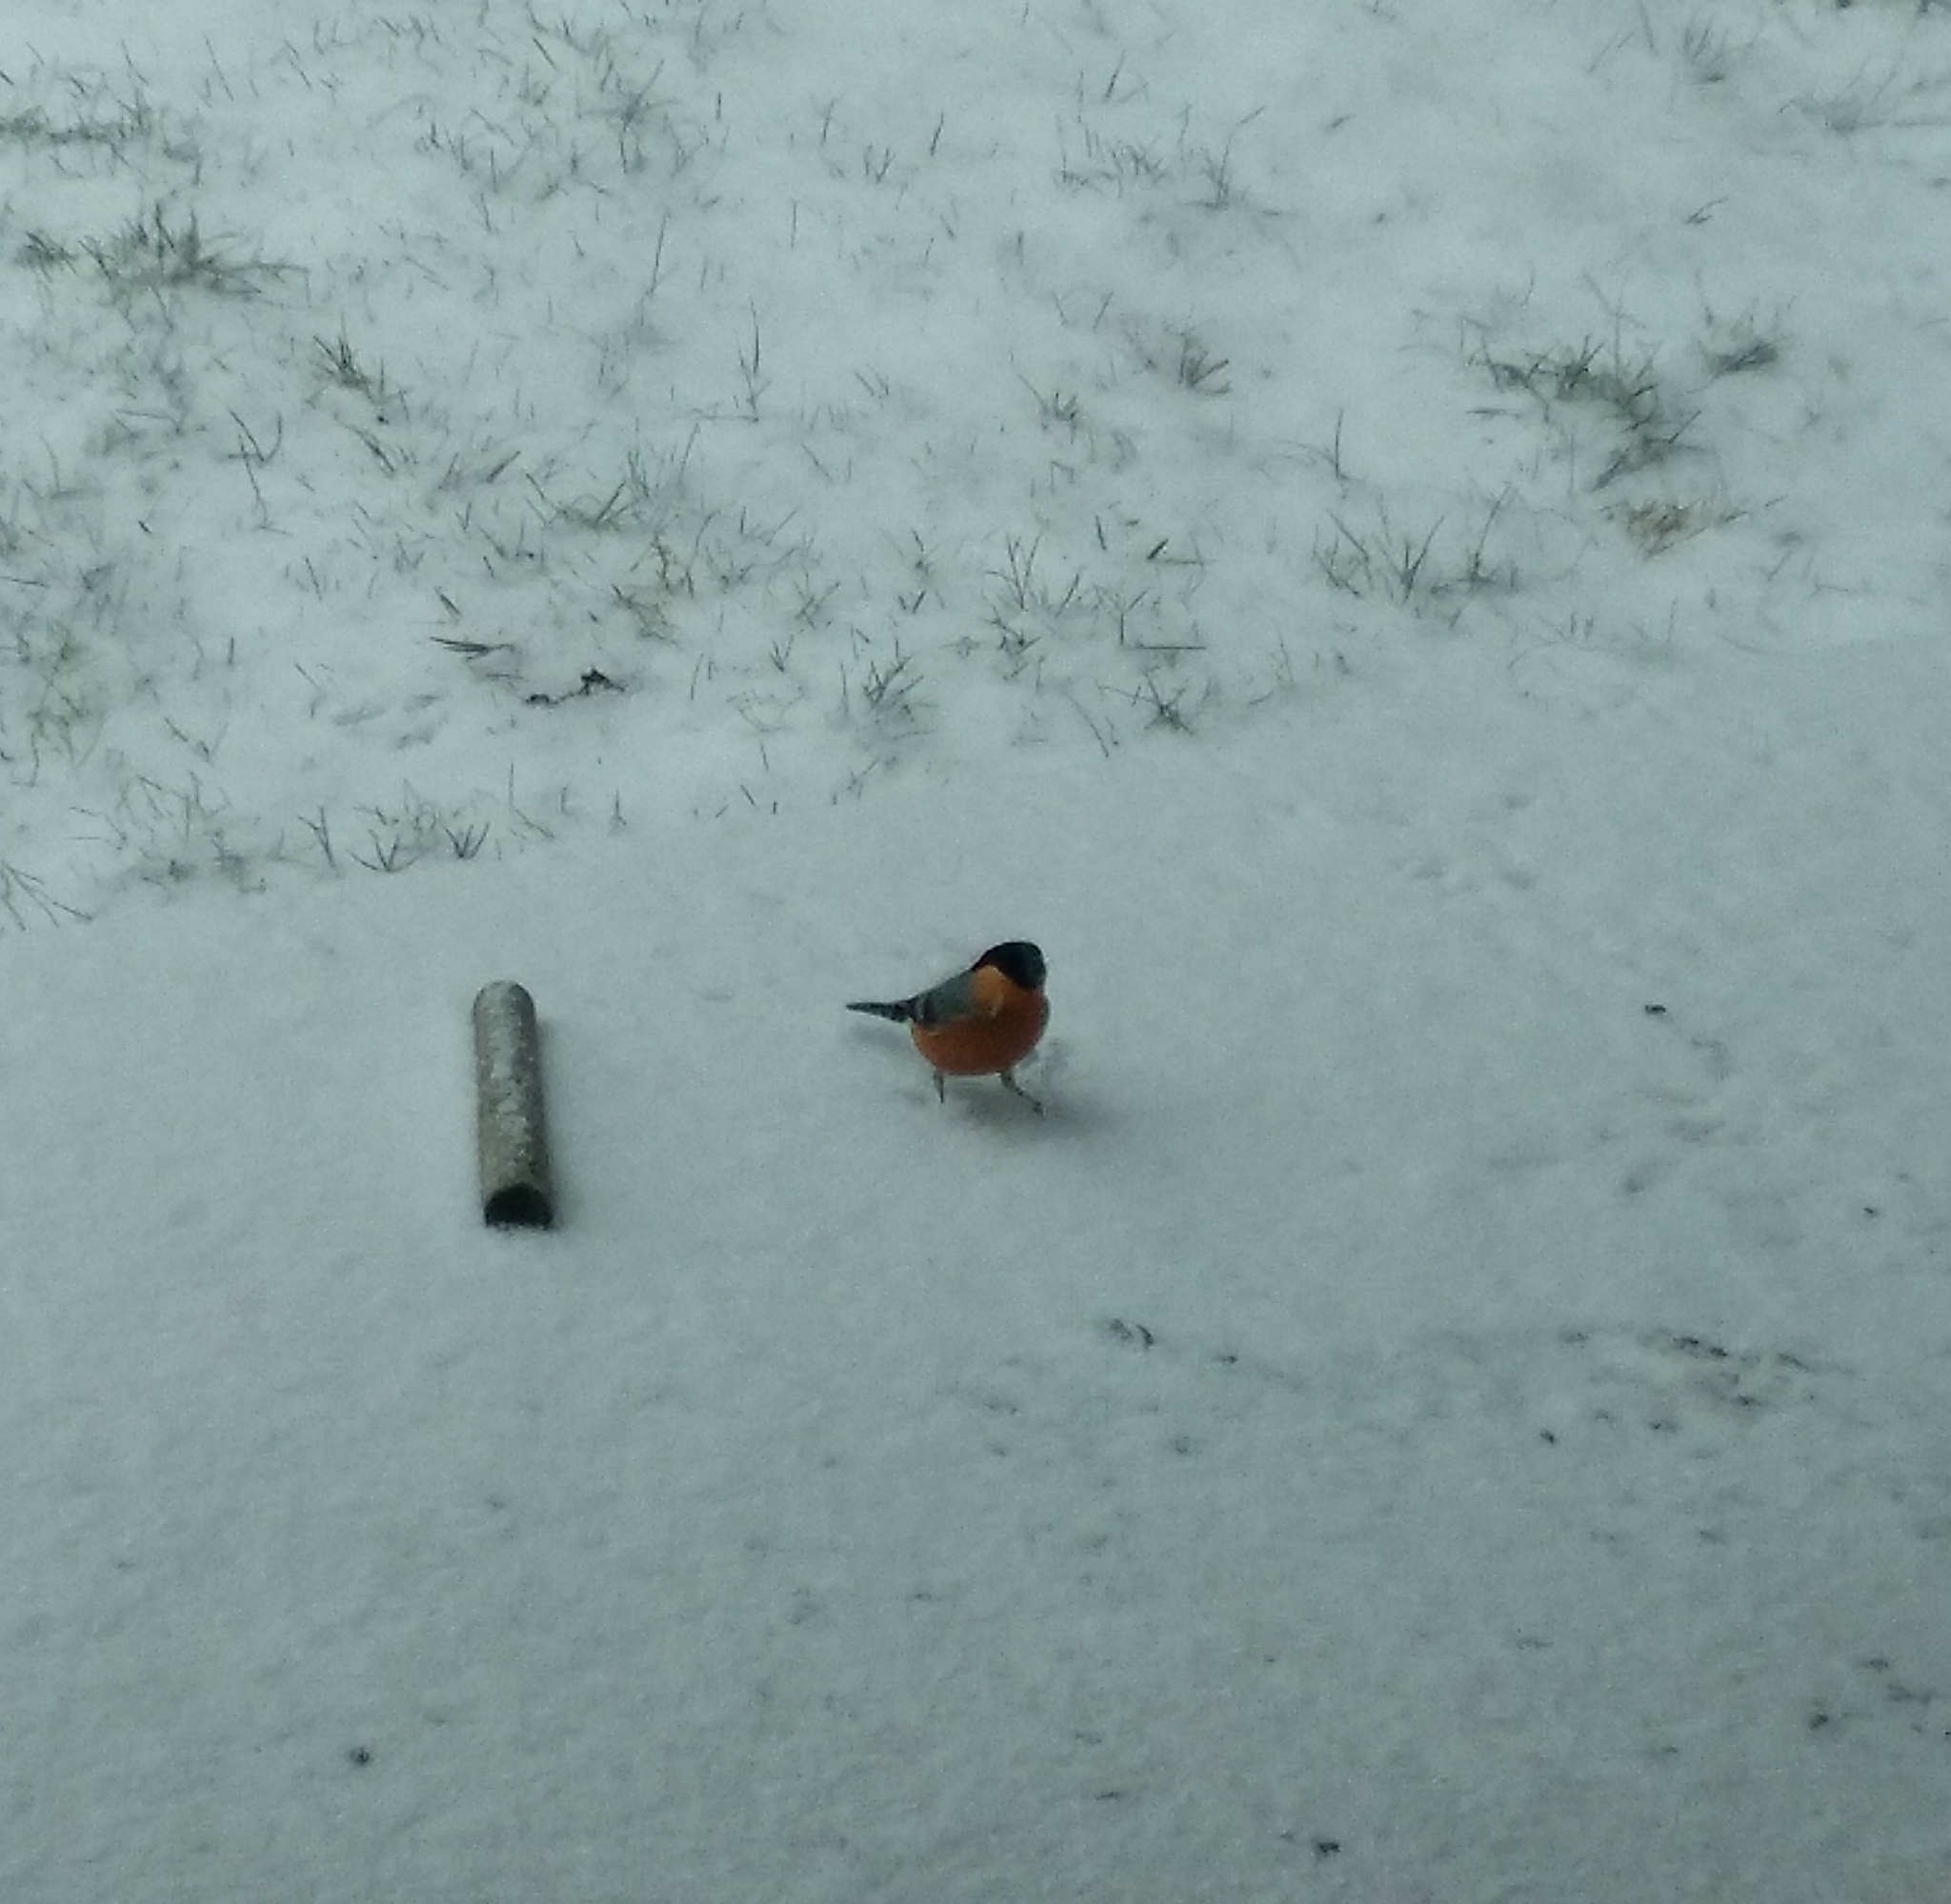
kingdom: Animalia
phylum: Chordata
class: Aves
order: Passeriformes
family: Fringillidae
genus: Pyrrhula
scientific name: Pyrrhula pyrrhula
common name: Eurasian bullfinch
